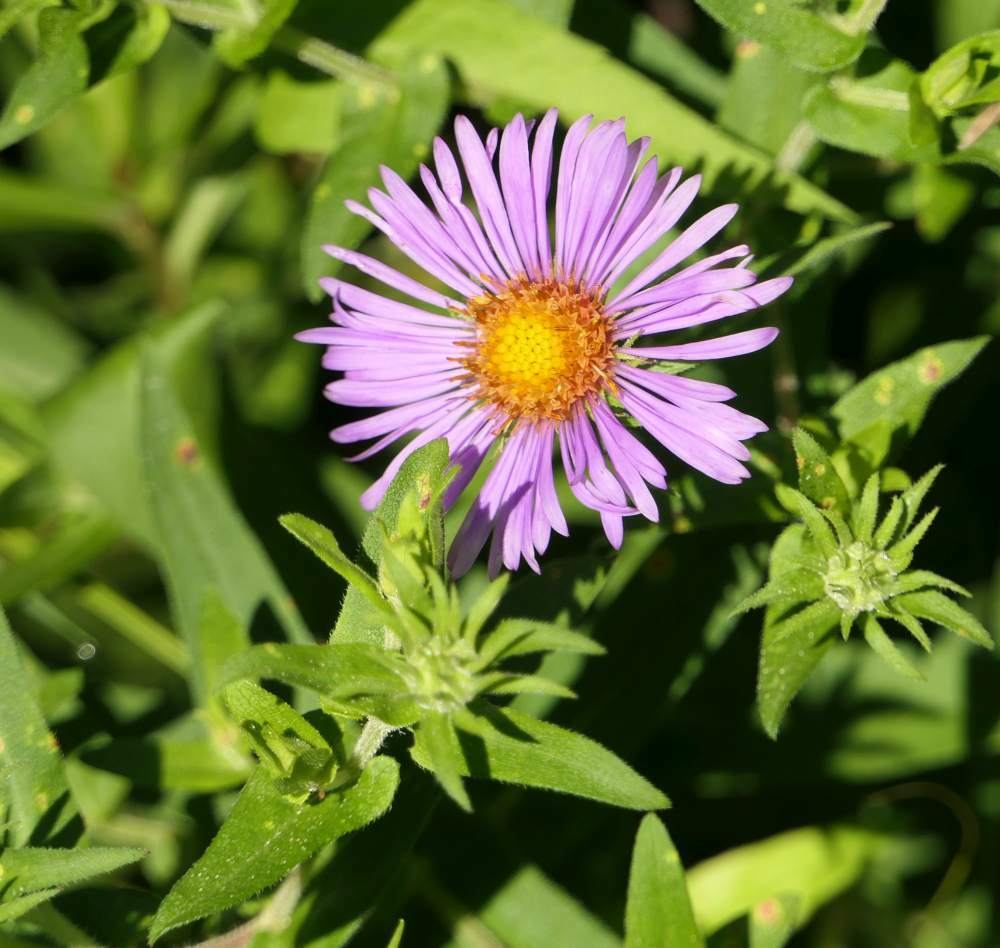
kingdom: Plantae
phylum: Tracheophyta
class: Magnoliopsida
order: Asterales
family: Asteraceae
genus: Symphyotrichum
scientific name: Symphyotrichum novae-angliae
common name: Michaelmas daisy
